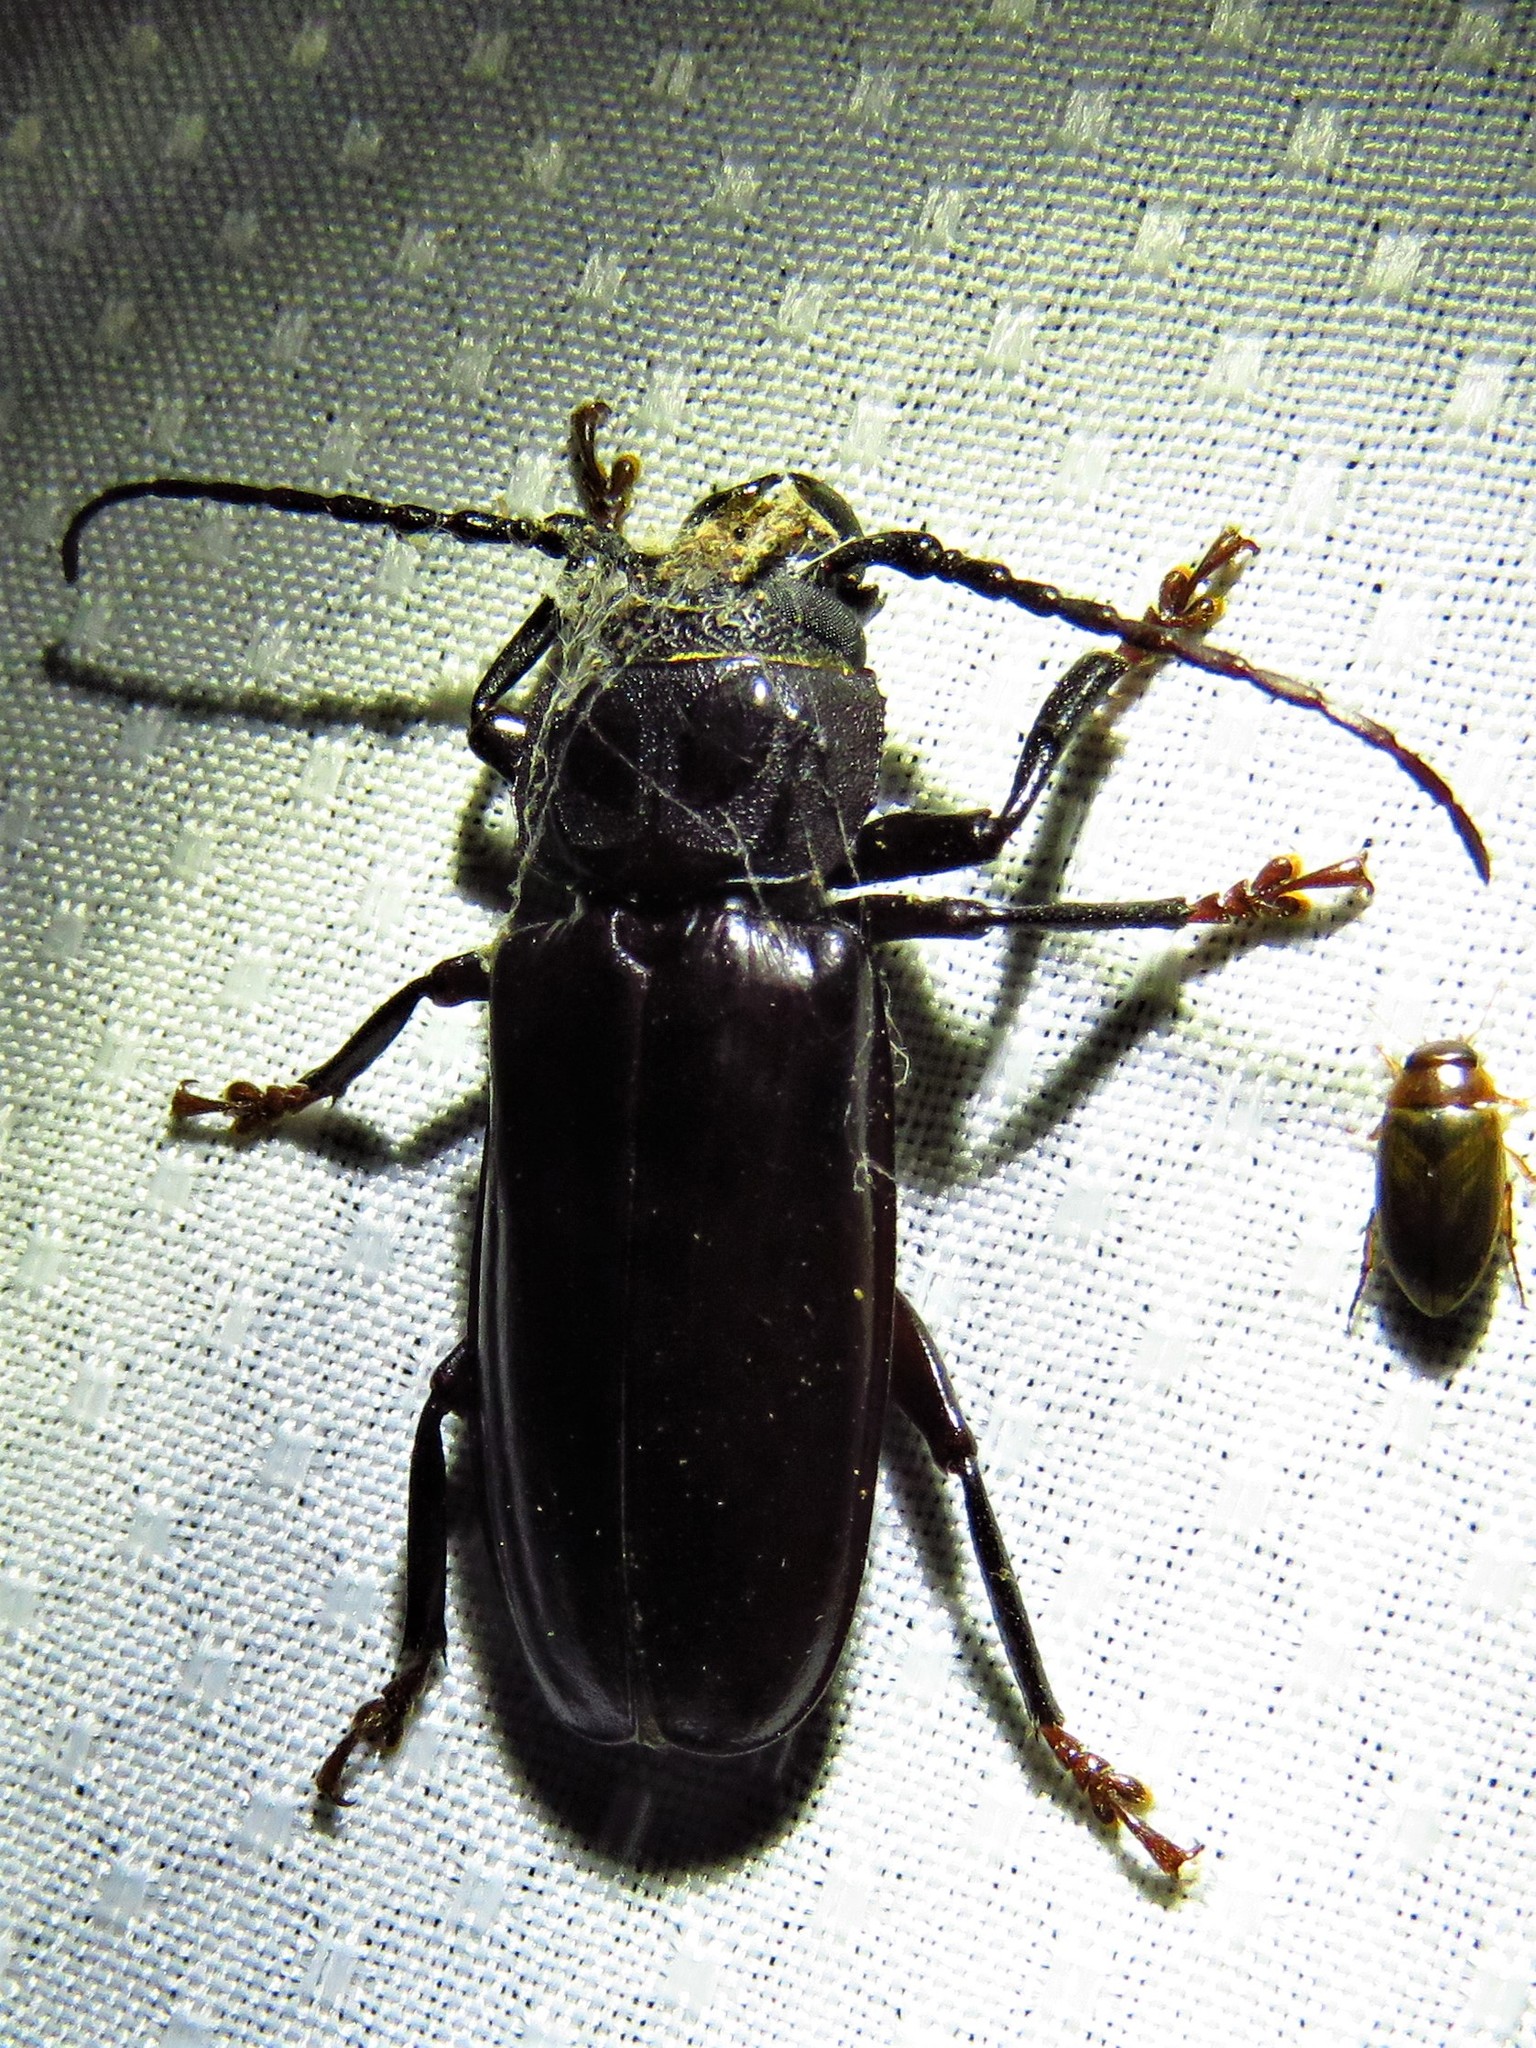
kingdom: Animalia
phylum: Arthropoda
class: Insecta
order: Coleoptera
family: Cerambycidae
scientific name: Cerambycidae
